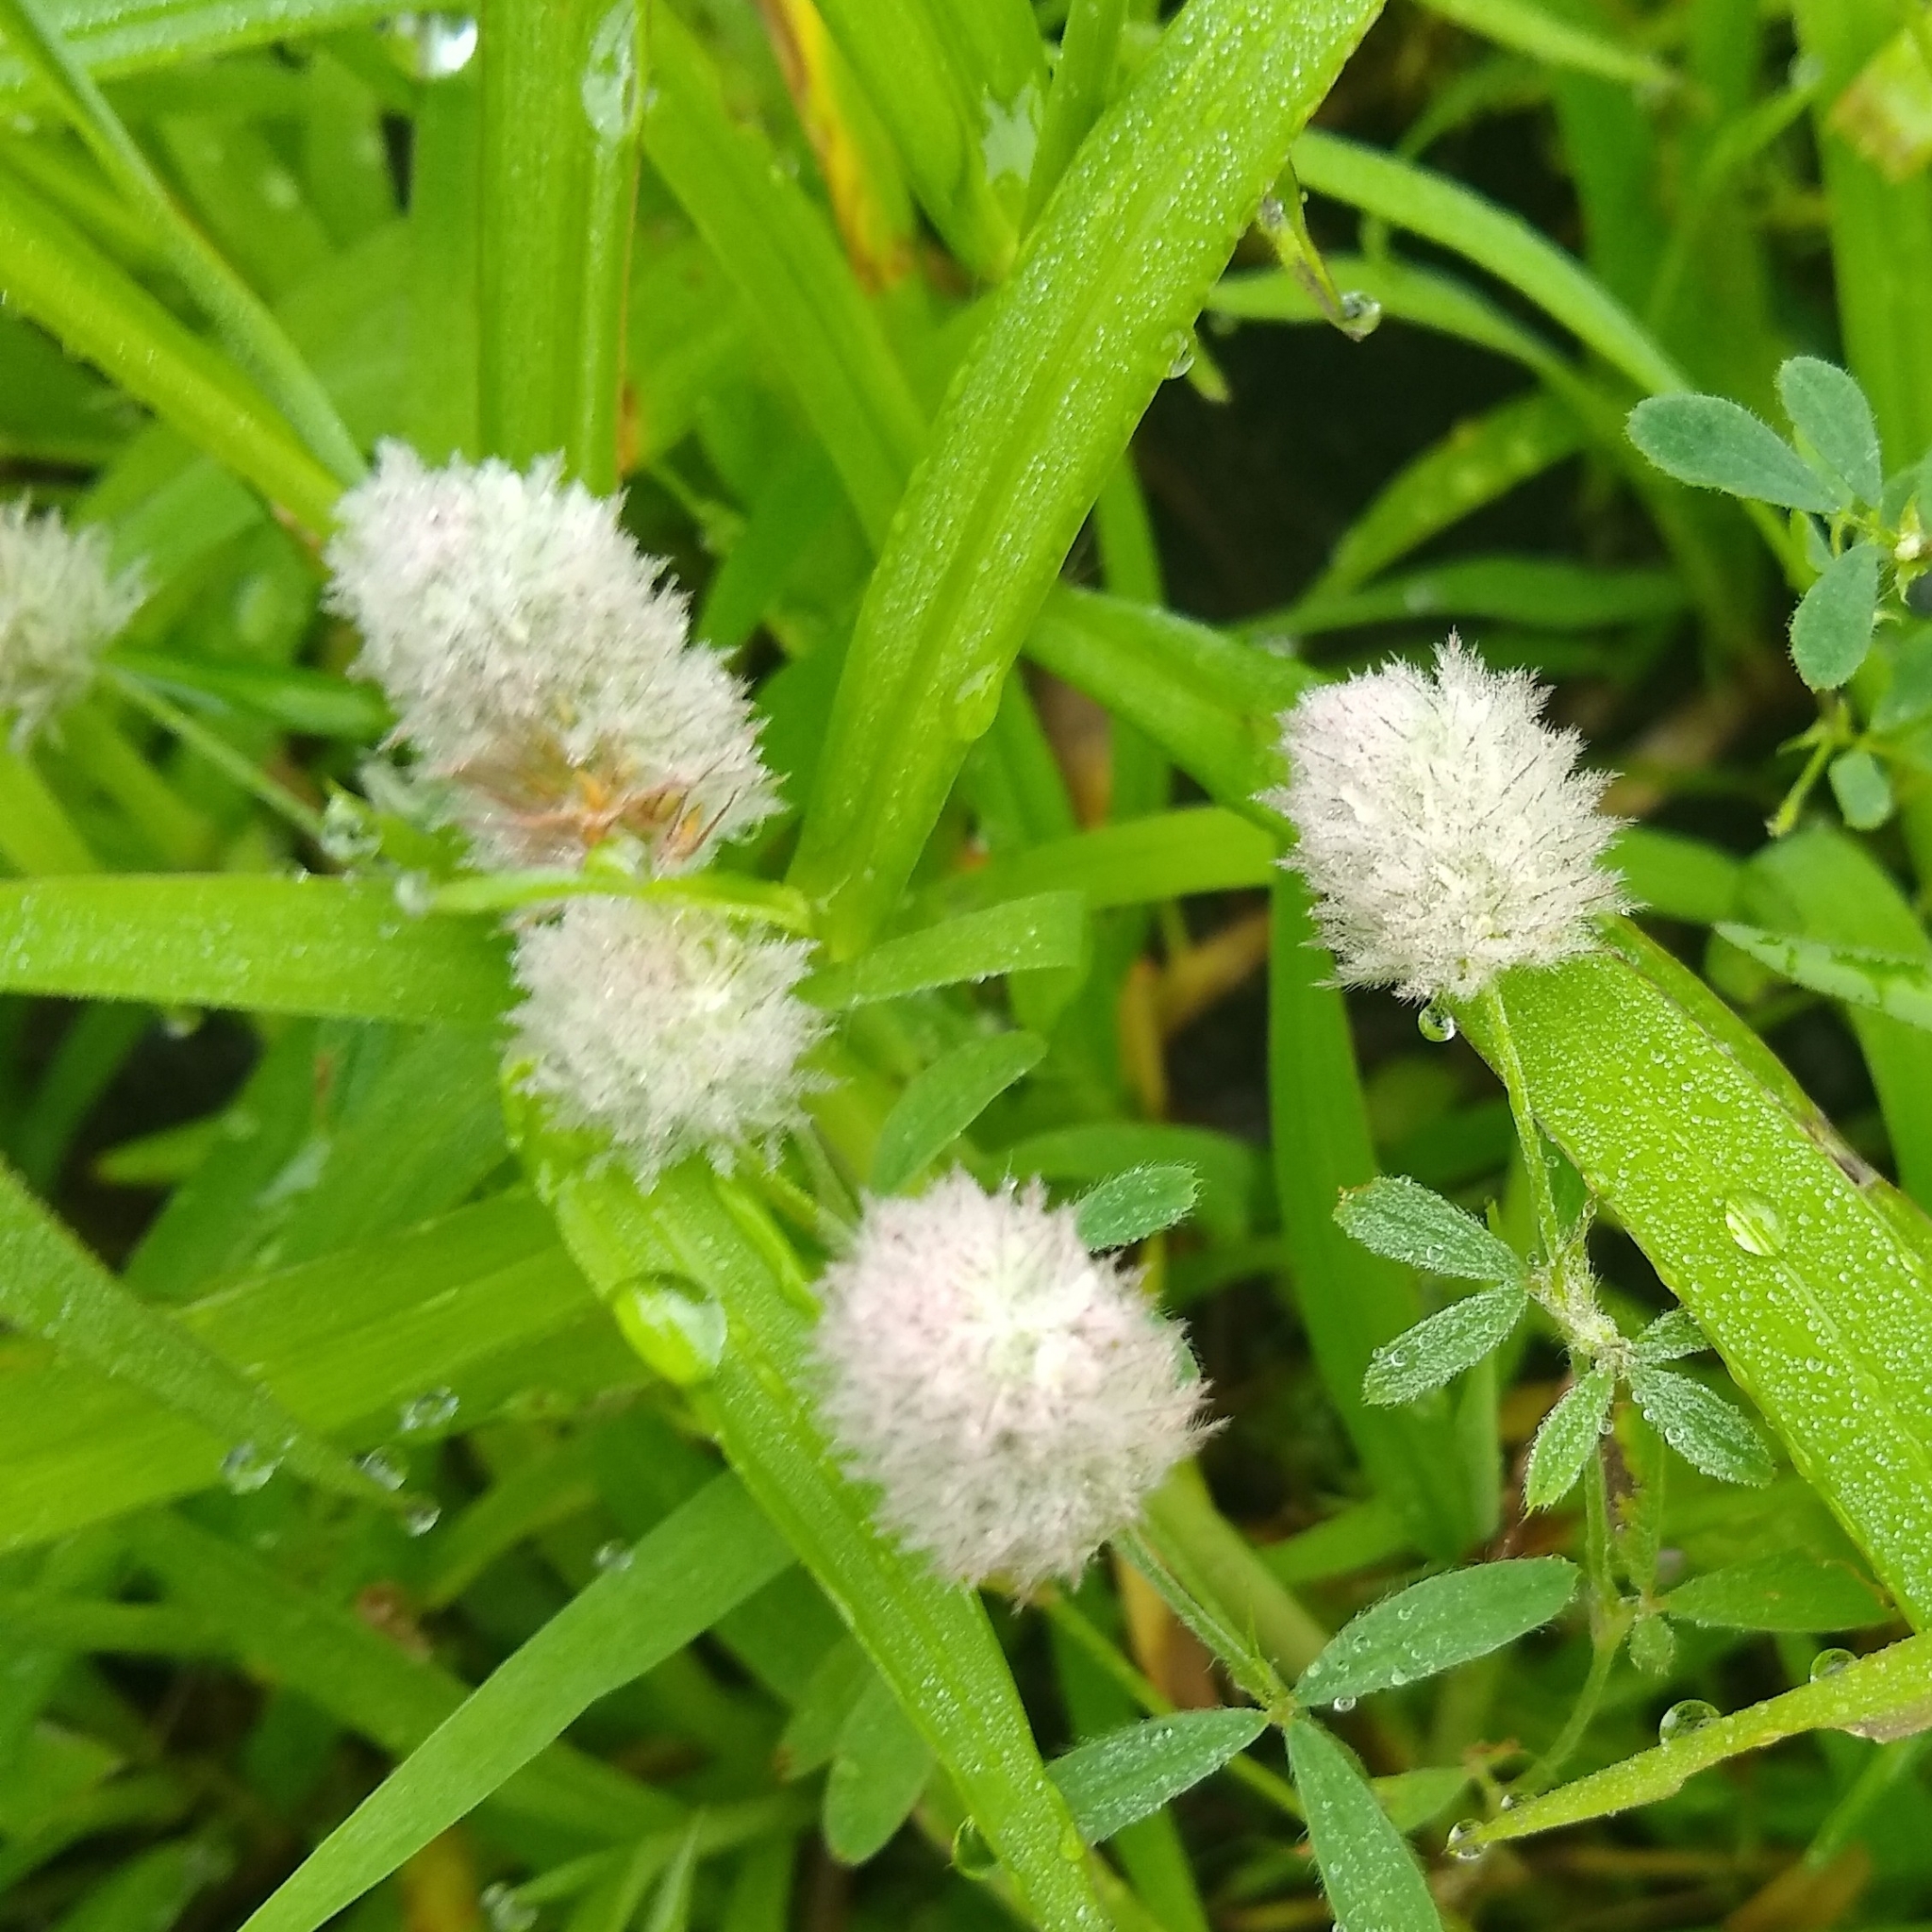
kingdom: Plantae
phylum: Tracheophyta
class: Magnoliopsida
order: Fabales
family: Fabaceae
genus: Trifolium
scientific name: Trifolium arvense
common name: Hare's-foot clover
